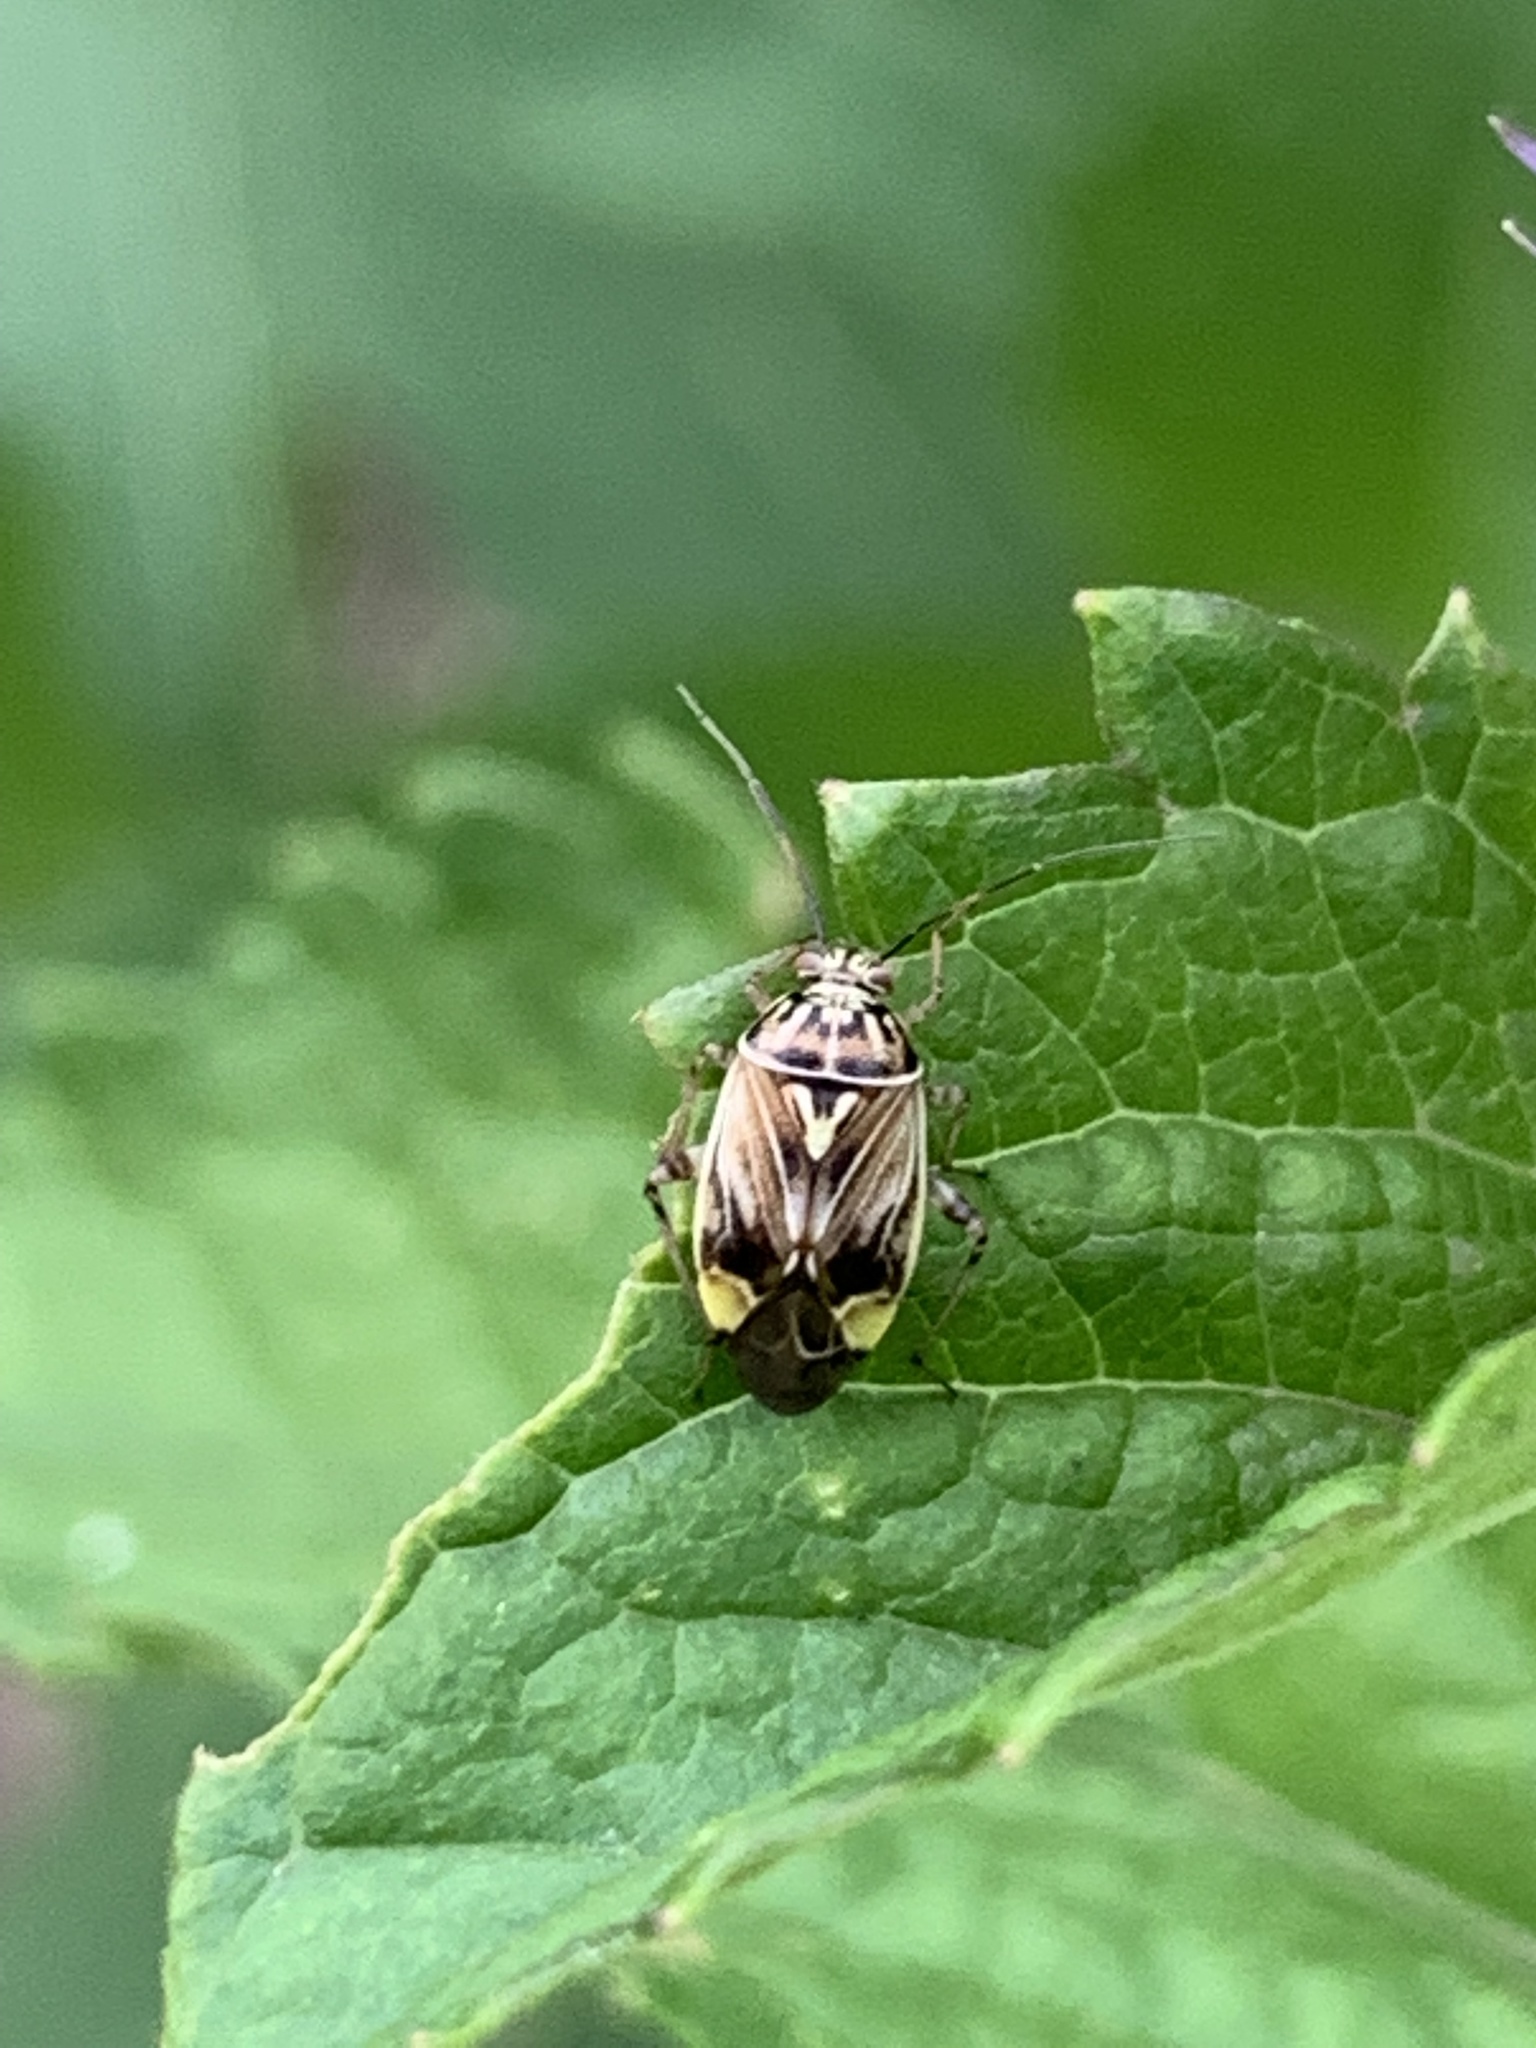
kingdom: Animalia
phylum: Arthropoda
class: Insecta
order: Hemiptera
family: Miridae
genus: Lygus
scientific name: Lygus lineolaris
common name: North american tarnished plant bug
